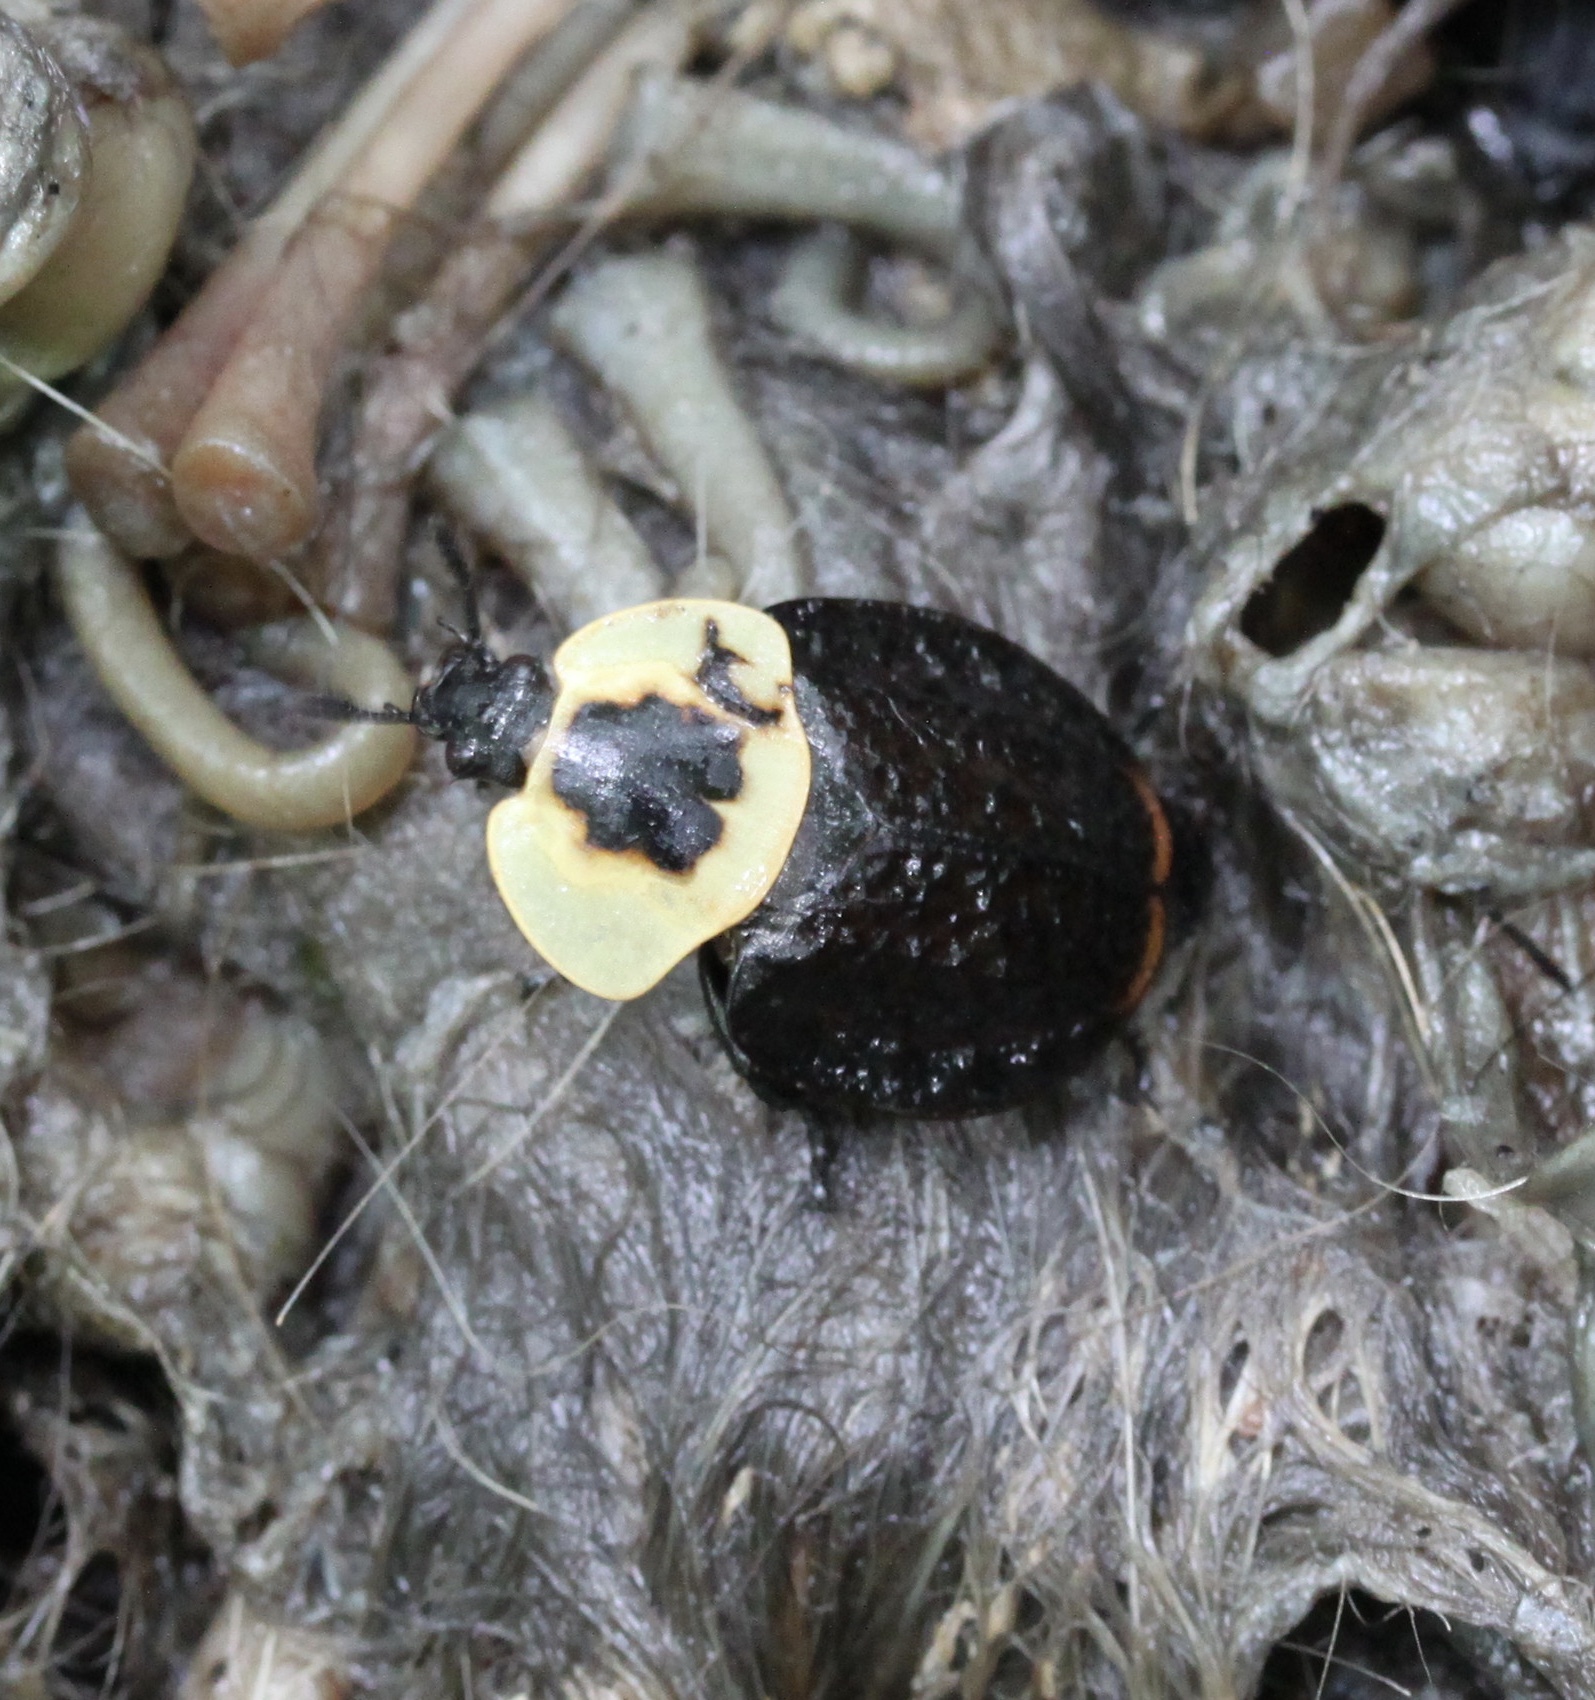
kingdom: Animalia
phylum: Arthropoda
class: Insecta
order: Coleoptera
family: Staphylinidae
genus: Necrophila
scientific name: Necrophila americana
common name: American carrion beetle
